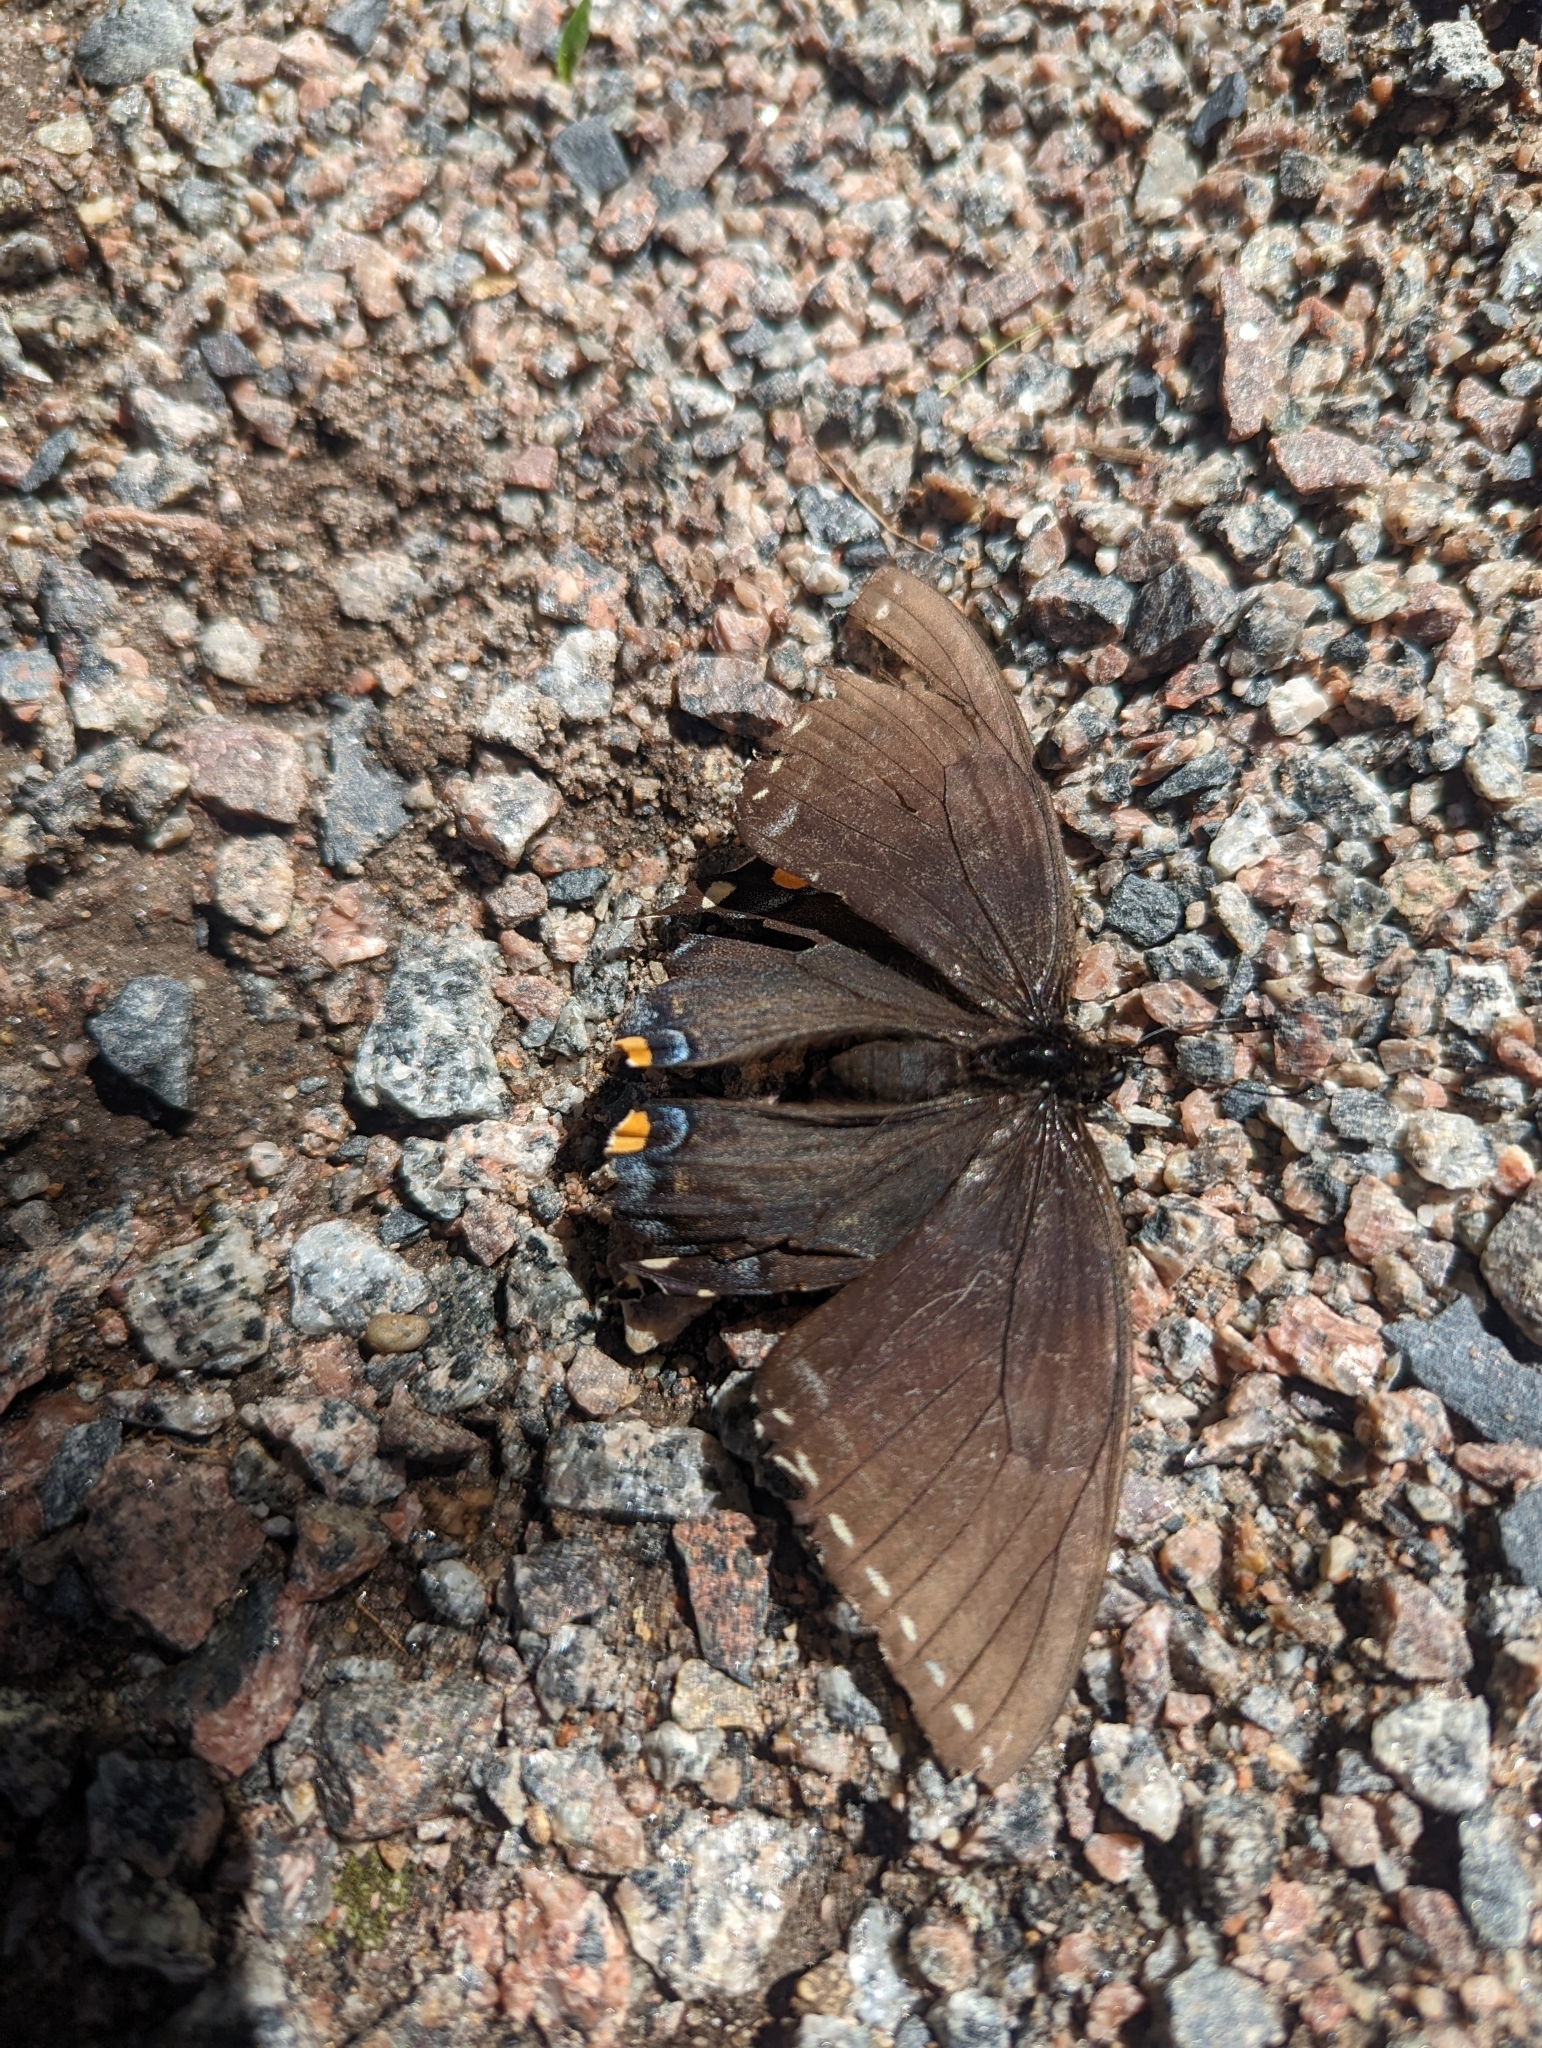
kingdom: Animalia
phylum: Arthropoda
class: Insecta
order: Lepidoptera
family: Papilionidae
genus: Papilio
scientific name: Papilio glaucus
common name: Tiger swallowtail
